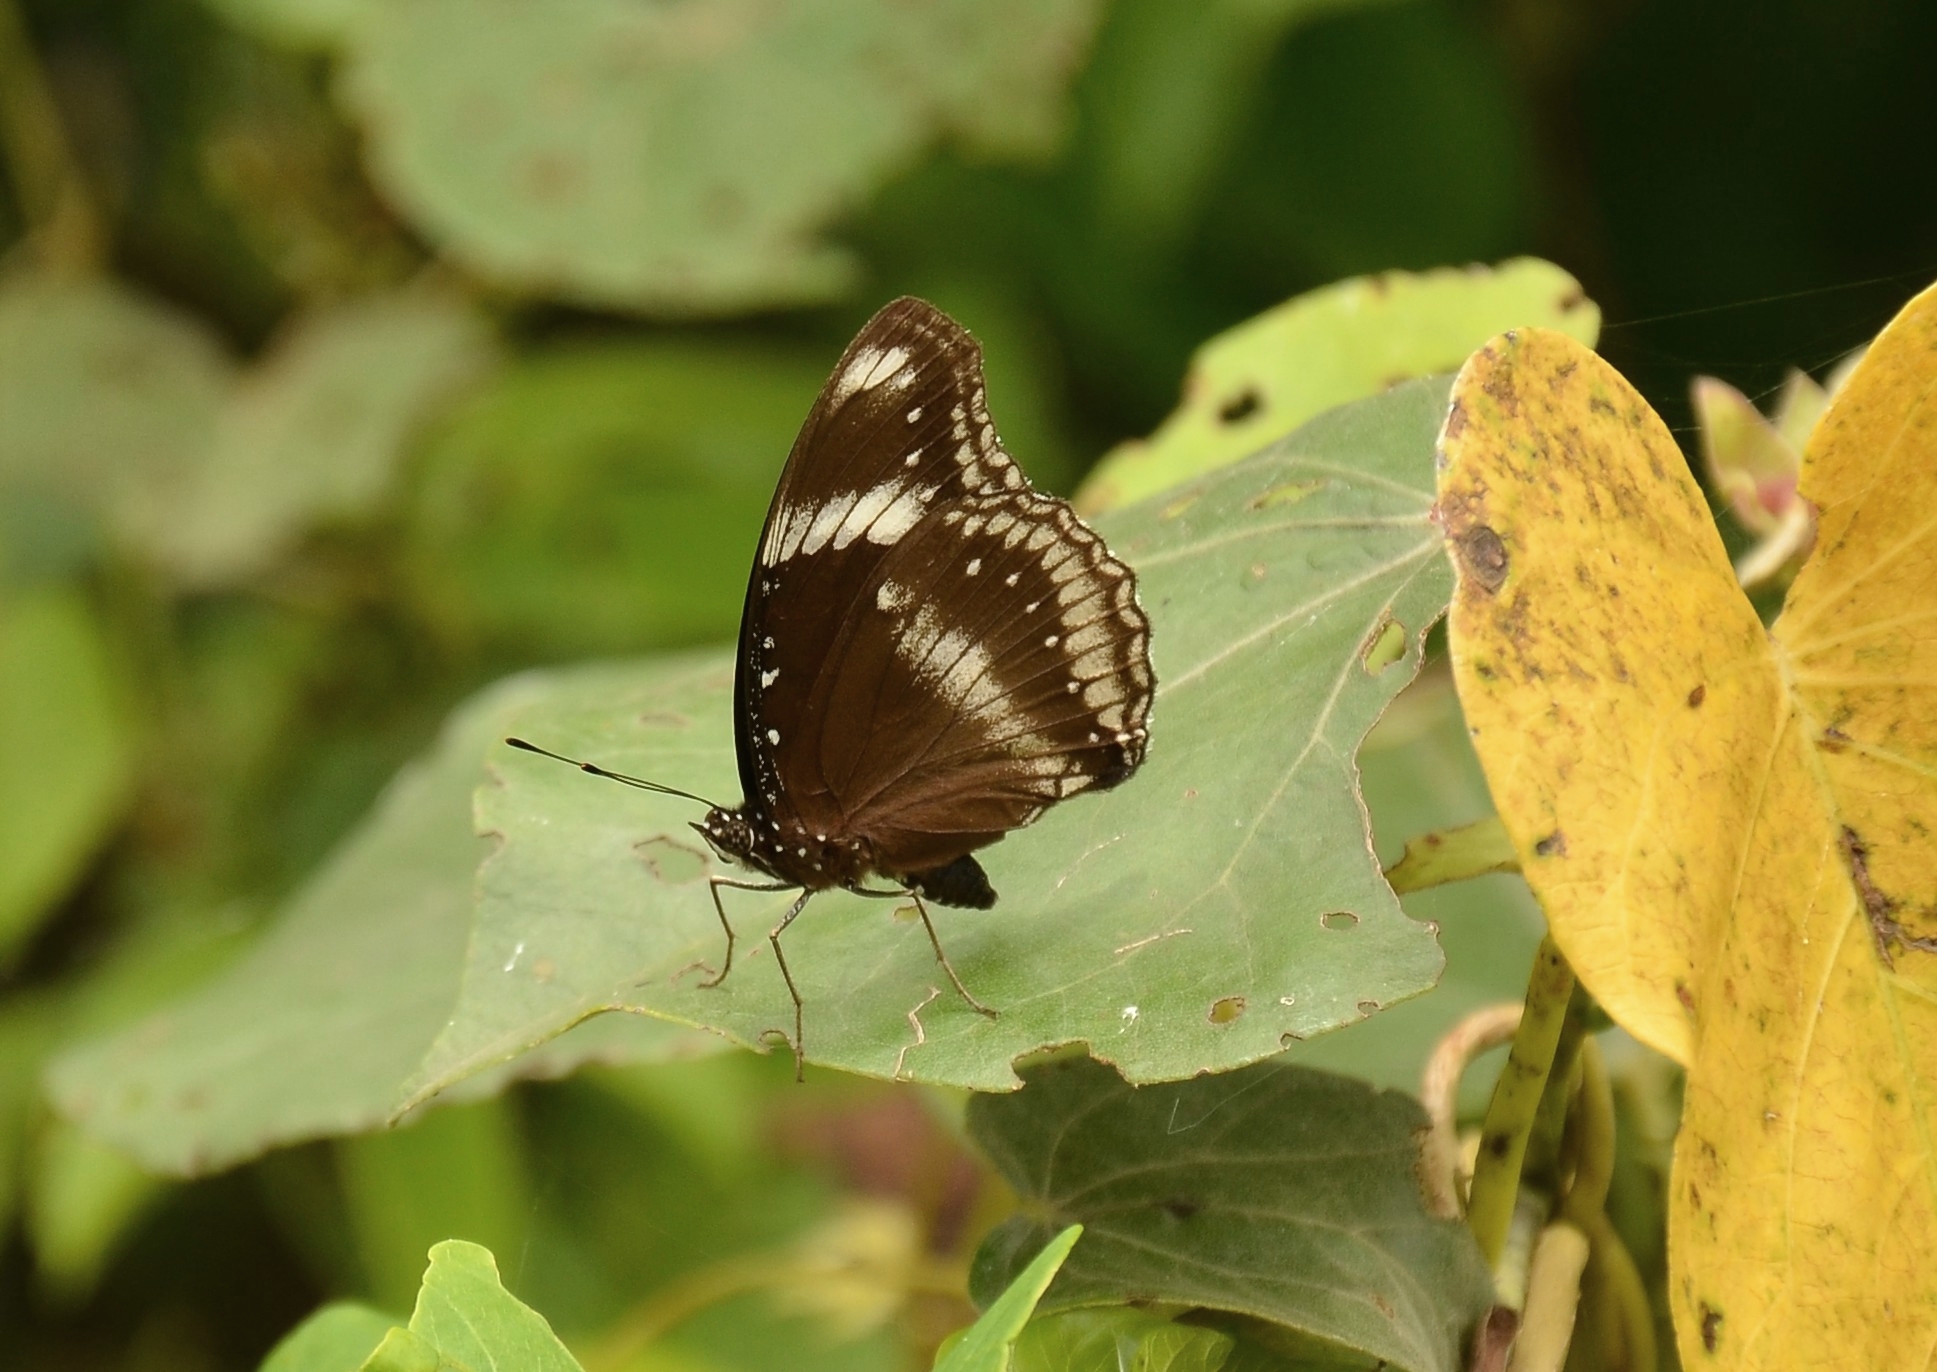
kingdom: Animalia
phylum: Arthropoda
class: Insecta
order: Lepidoptera
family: Nymphalidae
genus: Hypolimnas
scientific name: Hypolimnas bolina
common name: Great eggfly
